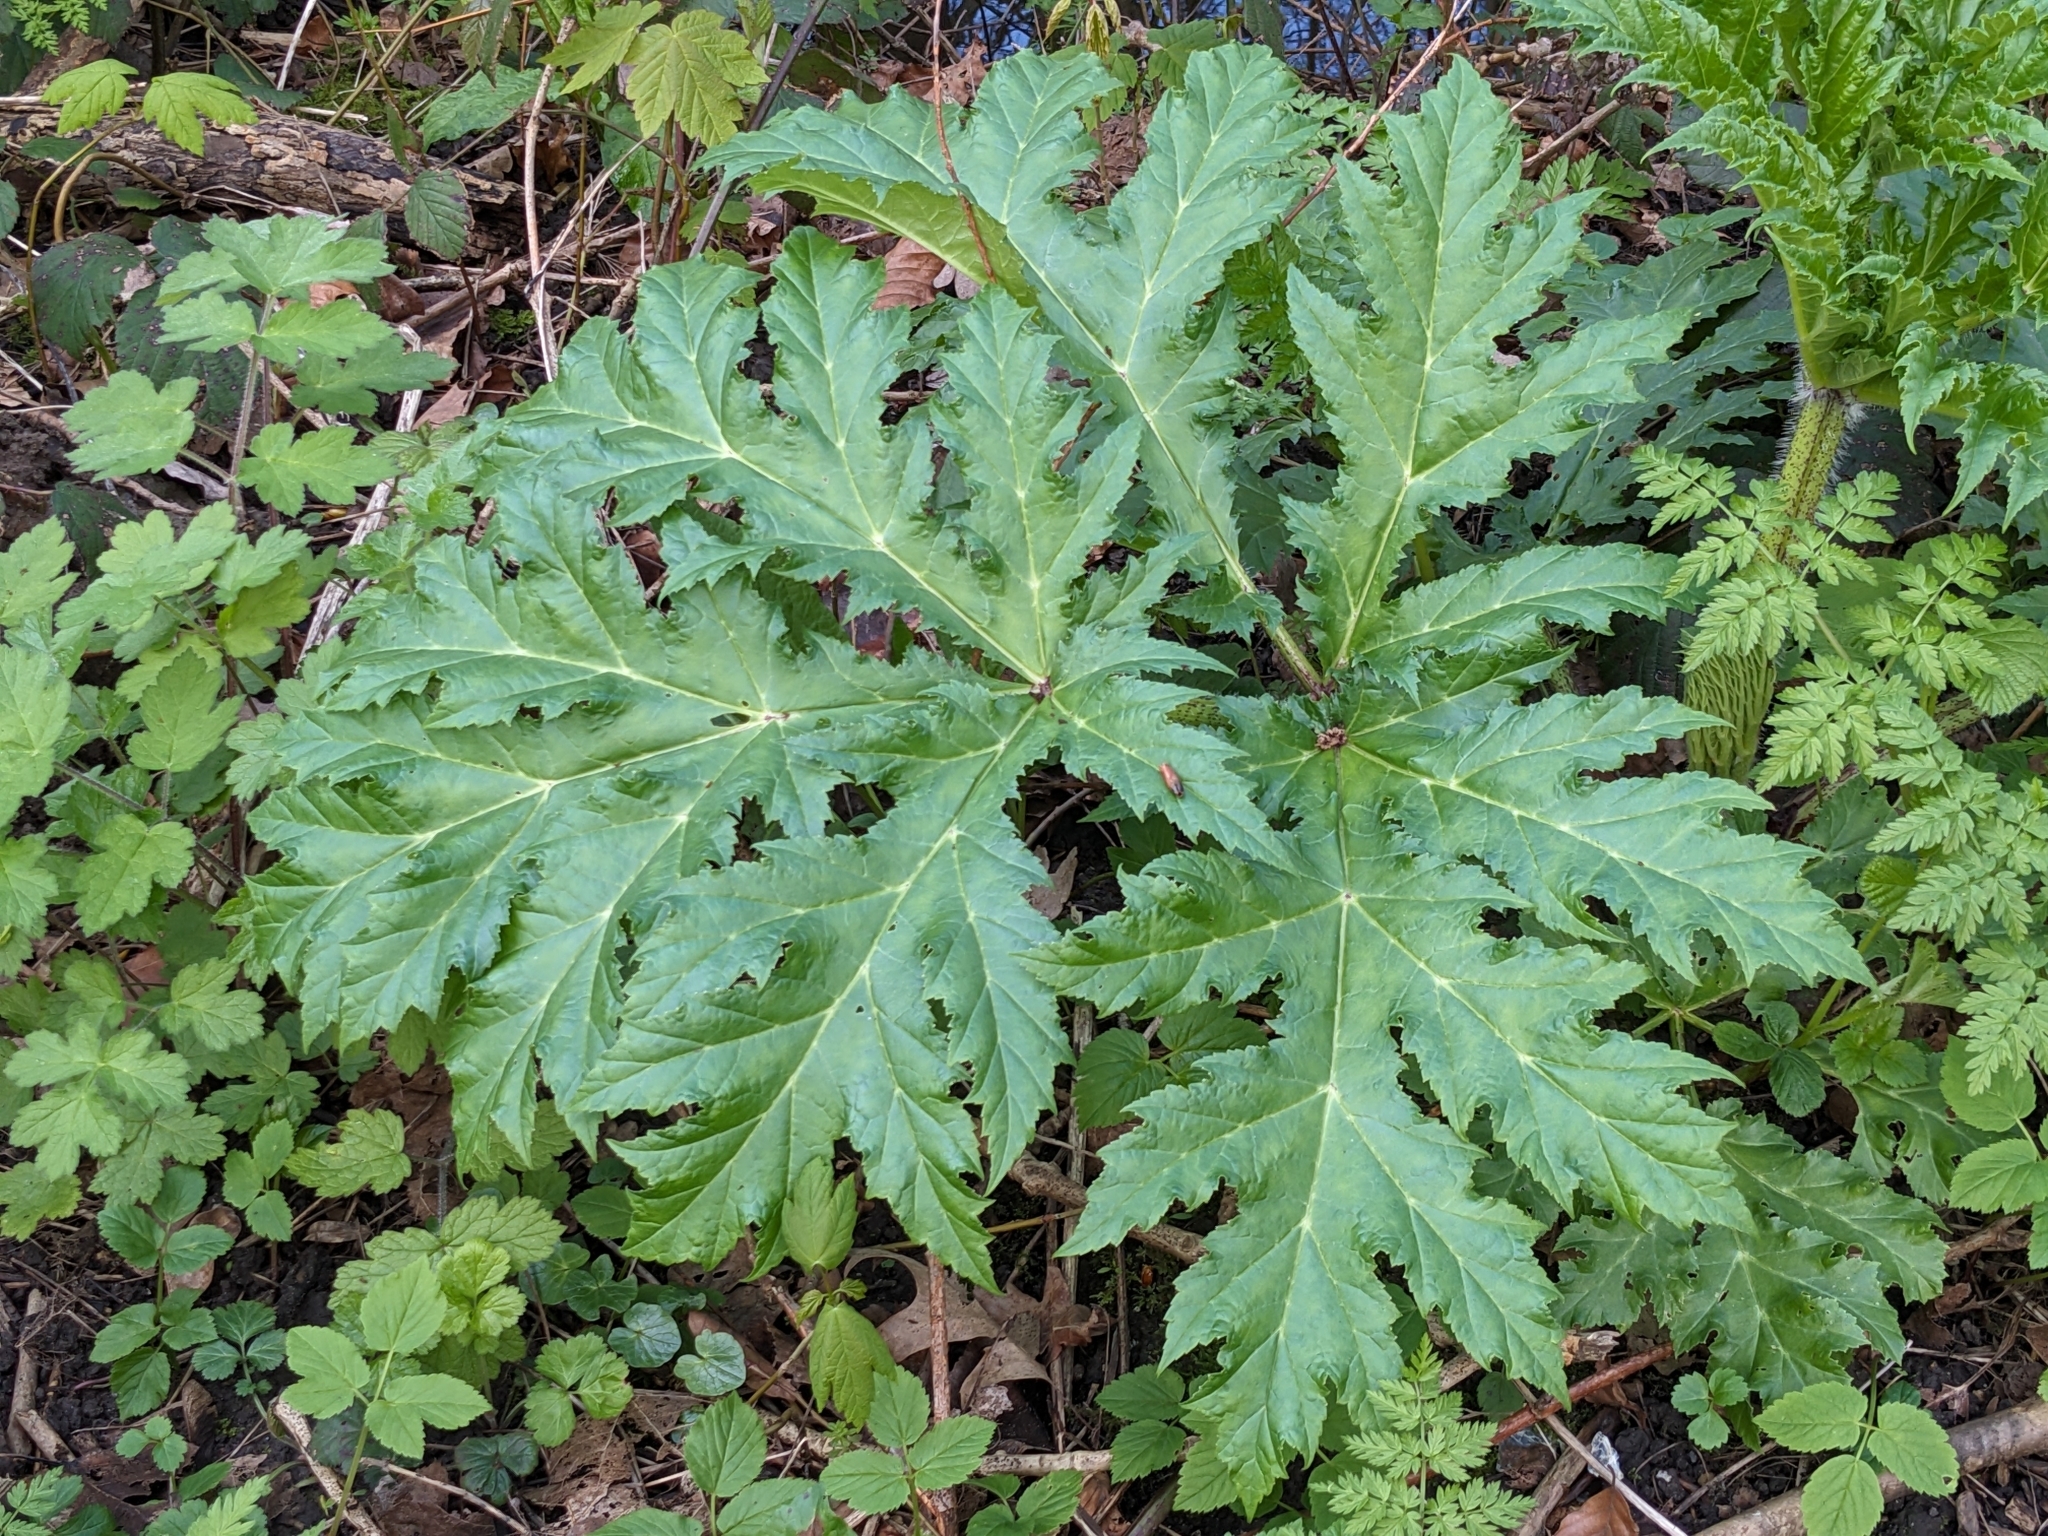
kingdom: Plantae
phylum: Tracheophyta
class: Magnoliopsida
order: Apiales
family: Apiaceae
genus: Heracleum
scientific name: Heracleum mantegazzianum
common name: Giant hogweed
